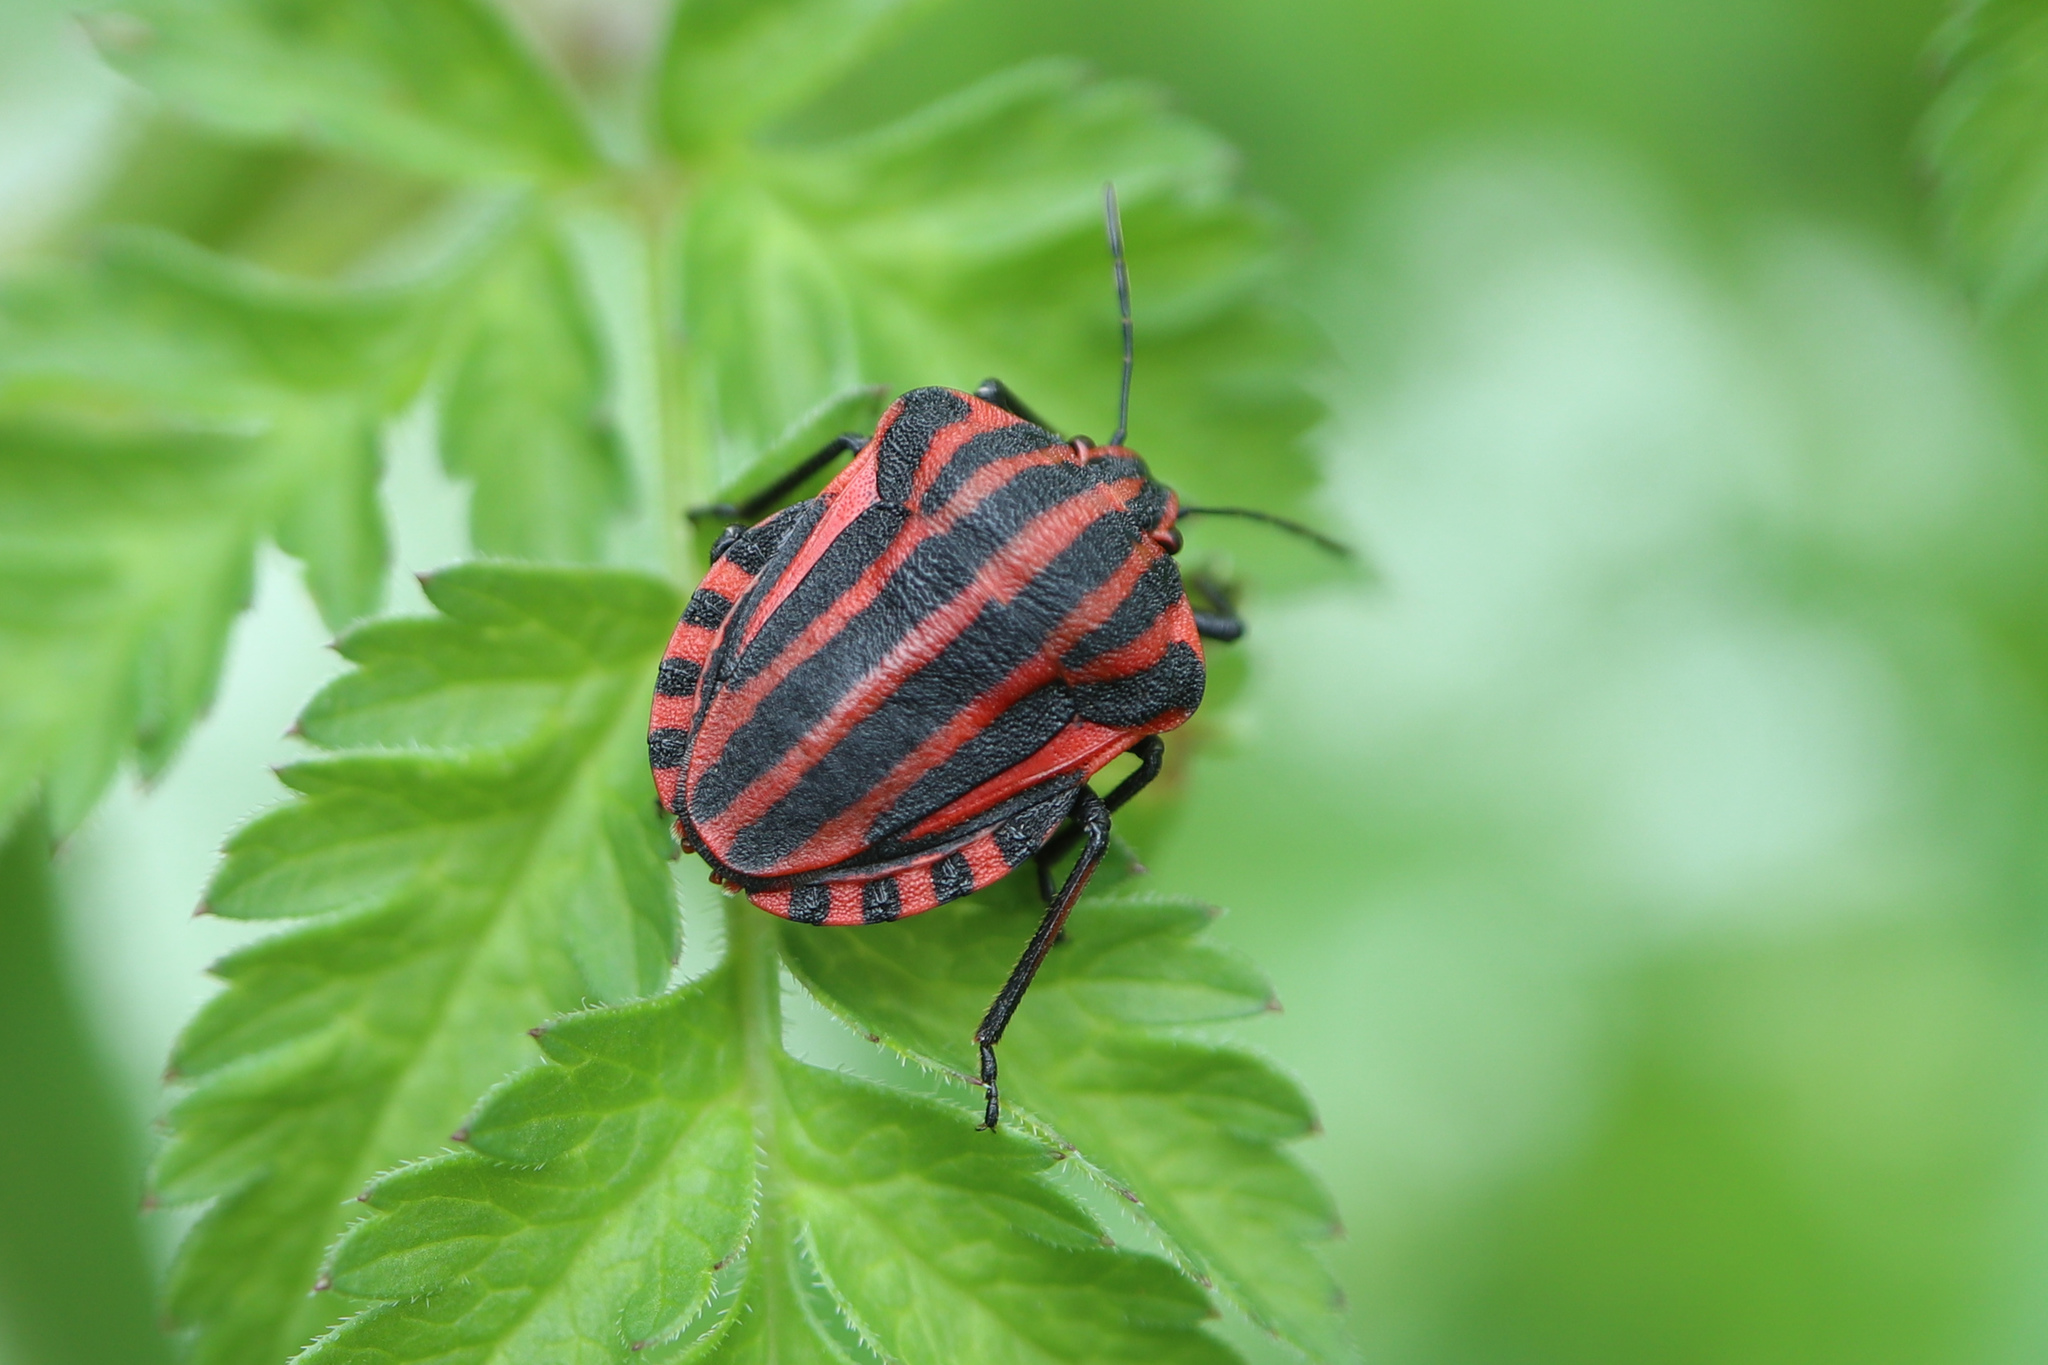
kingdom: Animalia
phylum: Arthropoda
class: Insecta
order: Hemiptera
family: Pentatomidae
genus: Graphosoma
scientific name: Graphosoma italicum
